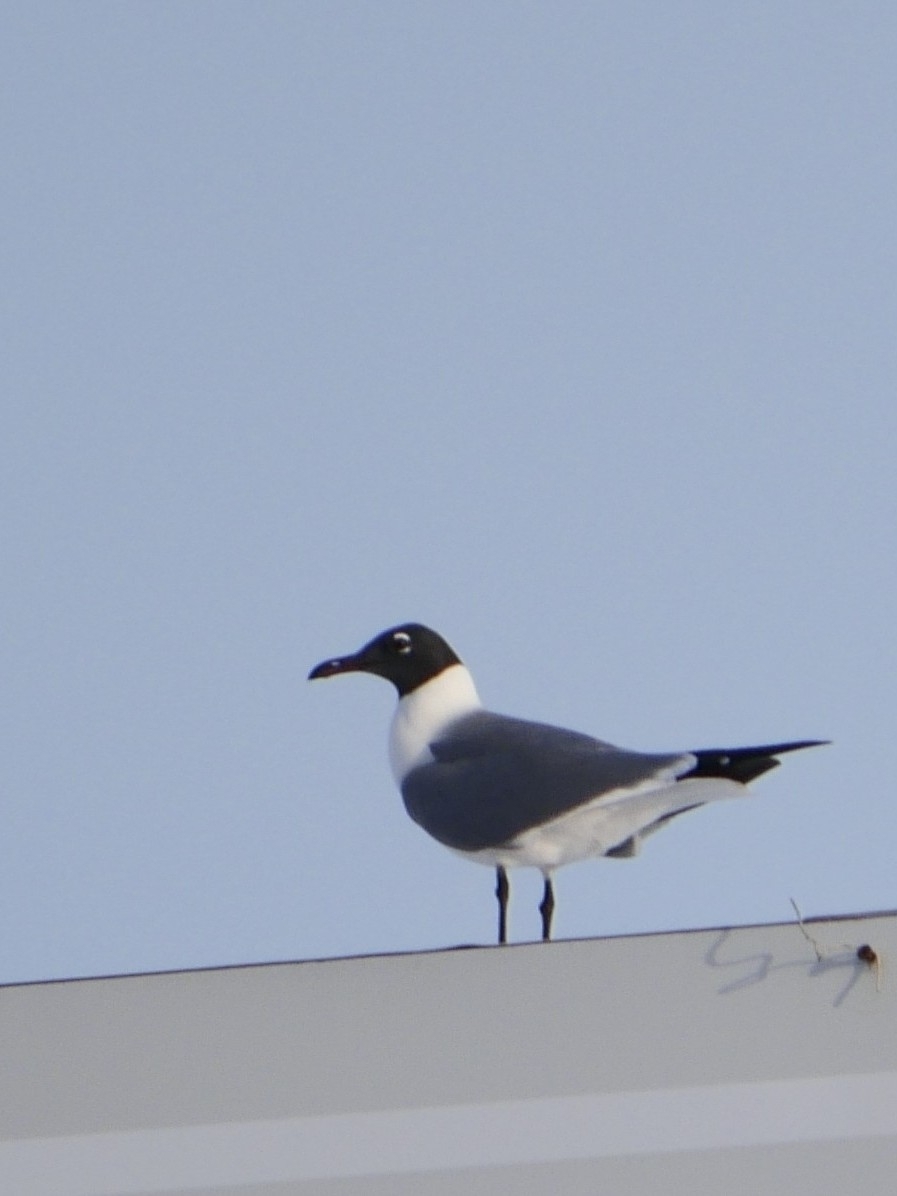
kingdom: Animalia
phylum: Chordata
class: Aves
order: Charadriiformes
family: Laridae
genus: Leucophaeus
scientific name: Leucophaeus atricilla
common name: Laughing gull
